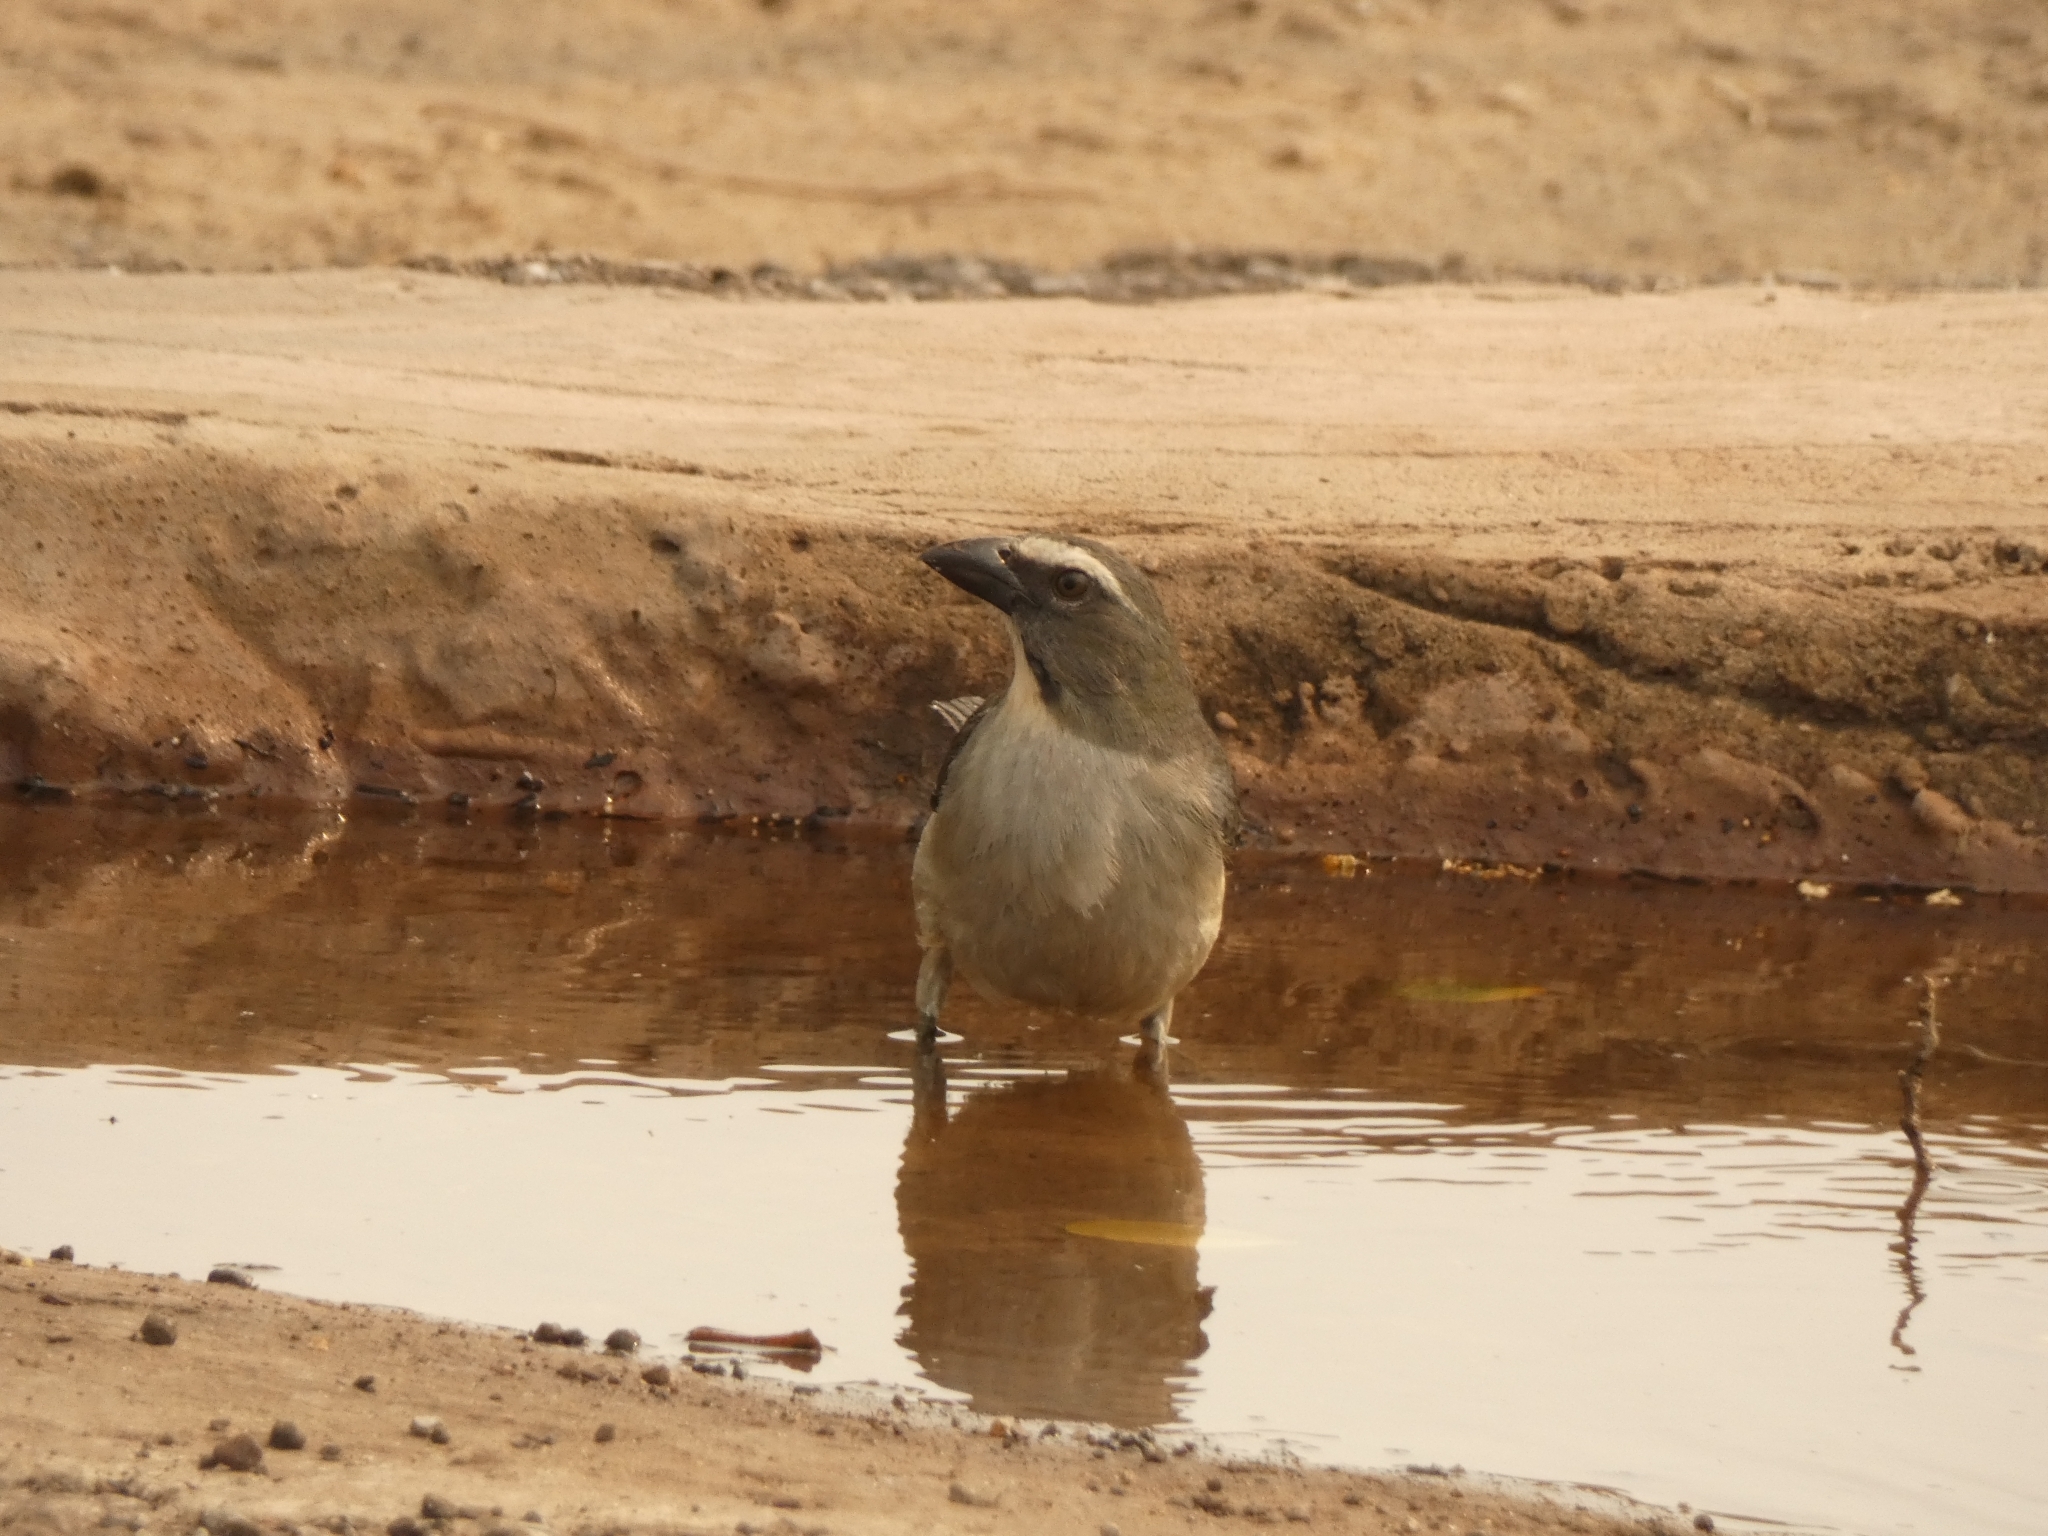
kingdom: Animalia
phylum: Chordata
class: Aves
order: Passeriformes
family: Thraupidae
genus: Saltator
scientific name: Saltator coerulescens
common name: Grayish saltator
